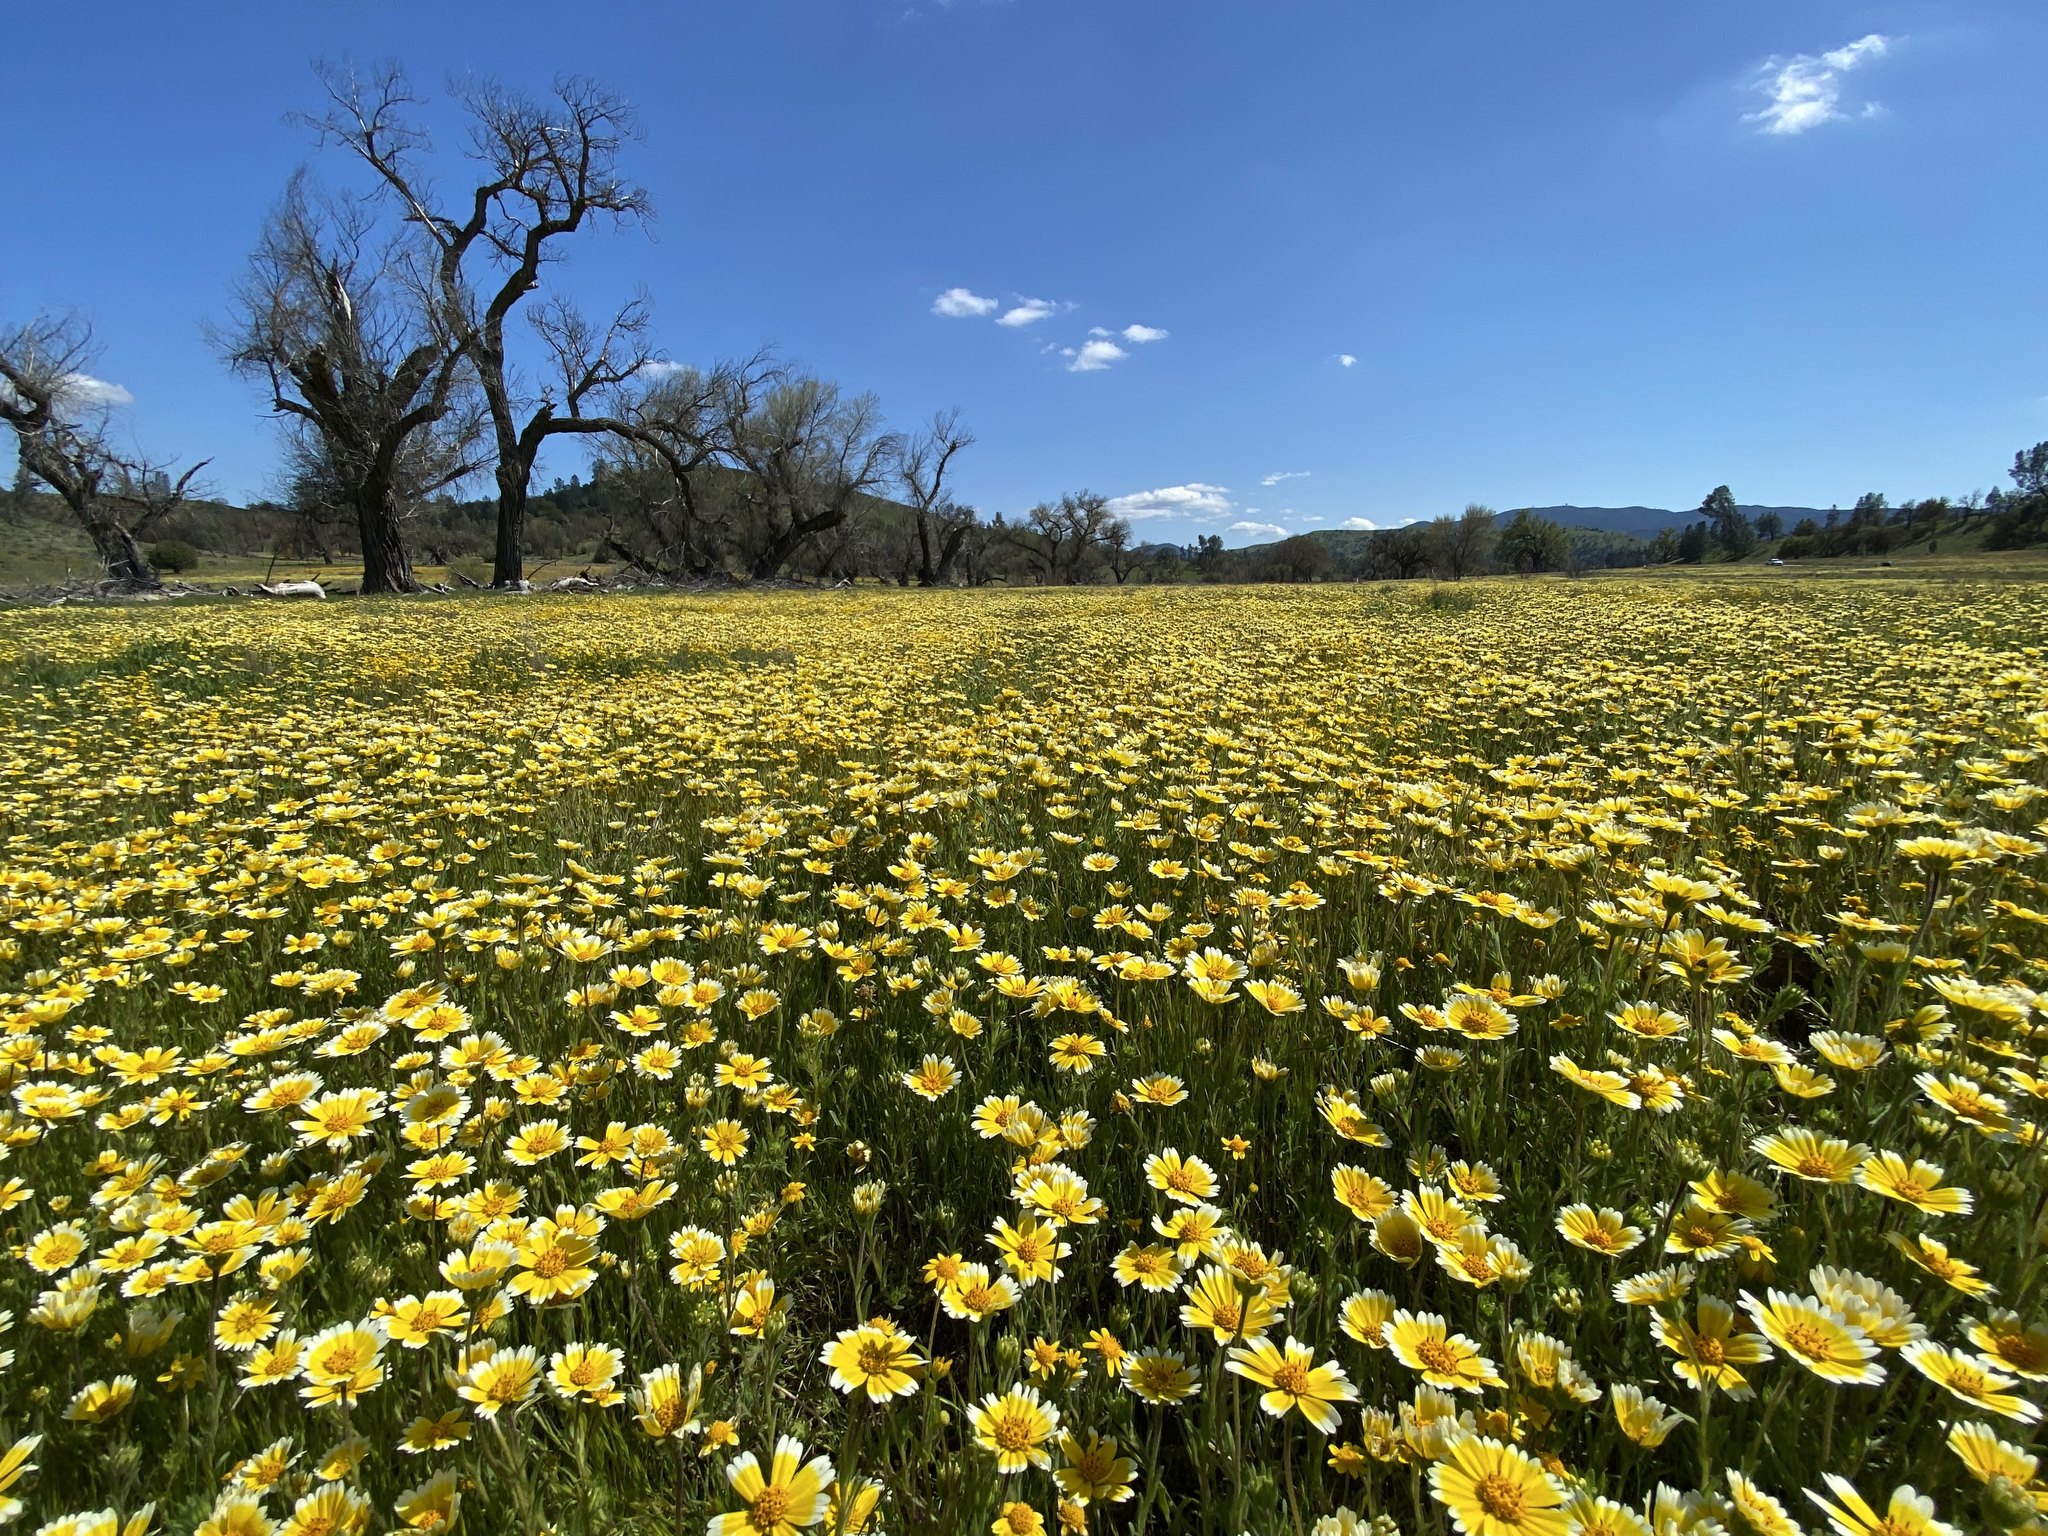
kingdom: Plantae
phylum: Tracheophyta
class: Magnoliopsida
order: Asterales
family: Asteraceae
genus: Layia
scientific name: Layia platyglossa
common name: Tidy-tips
